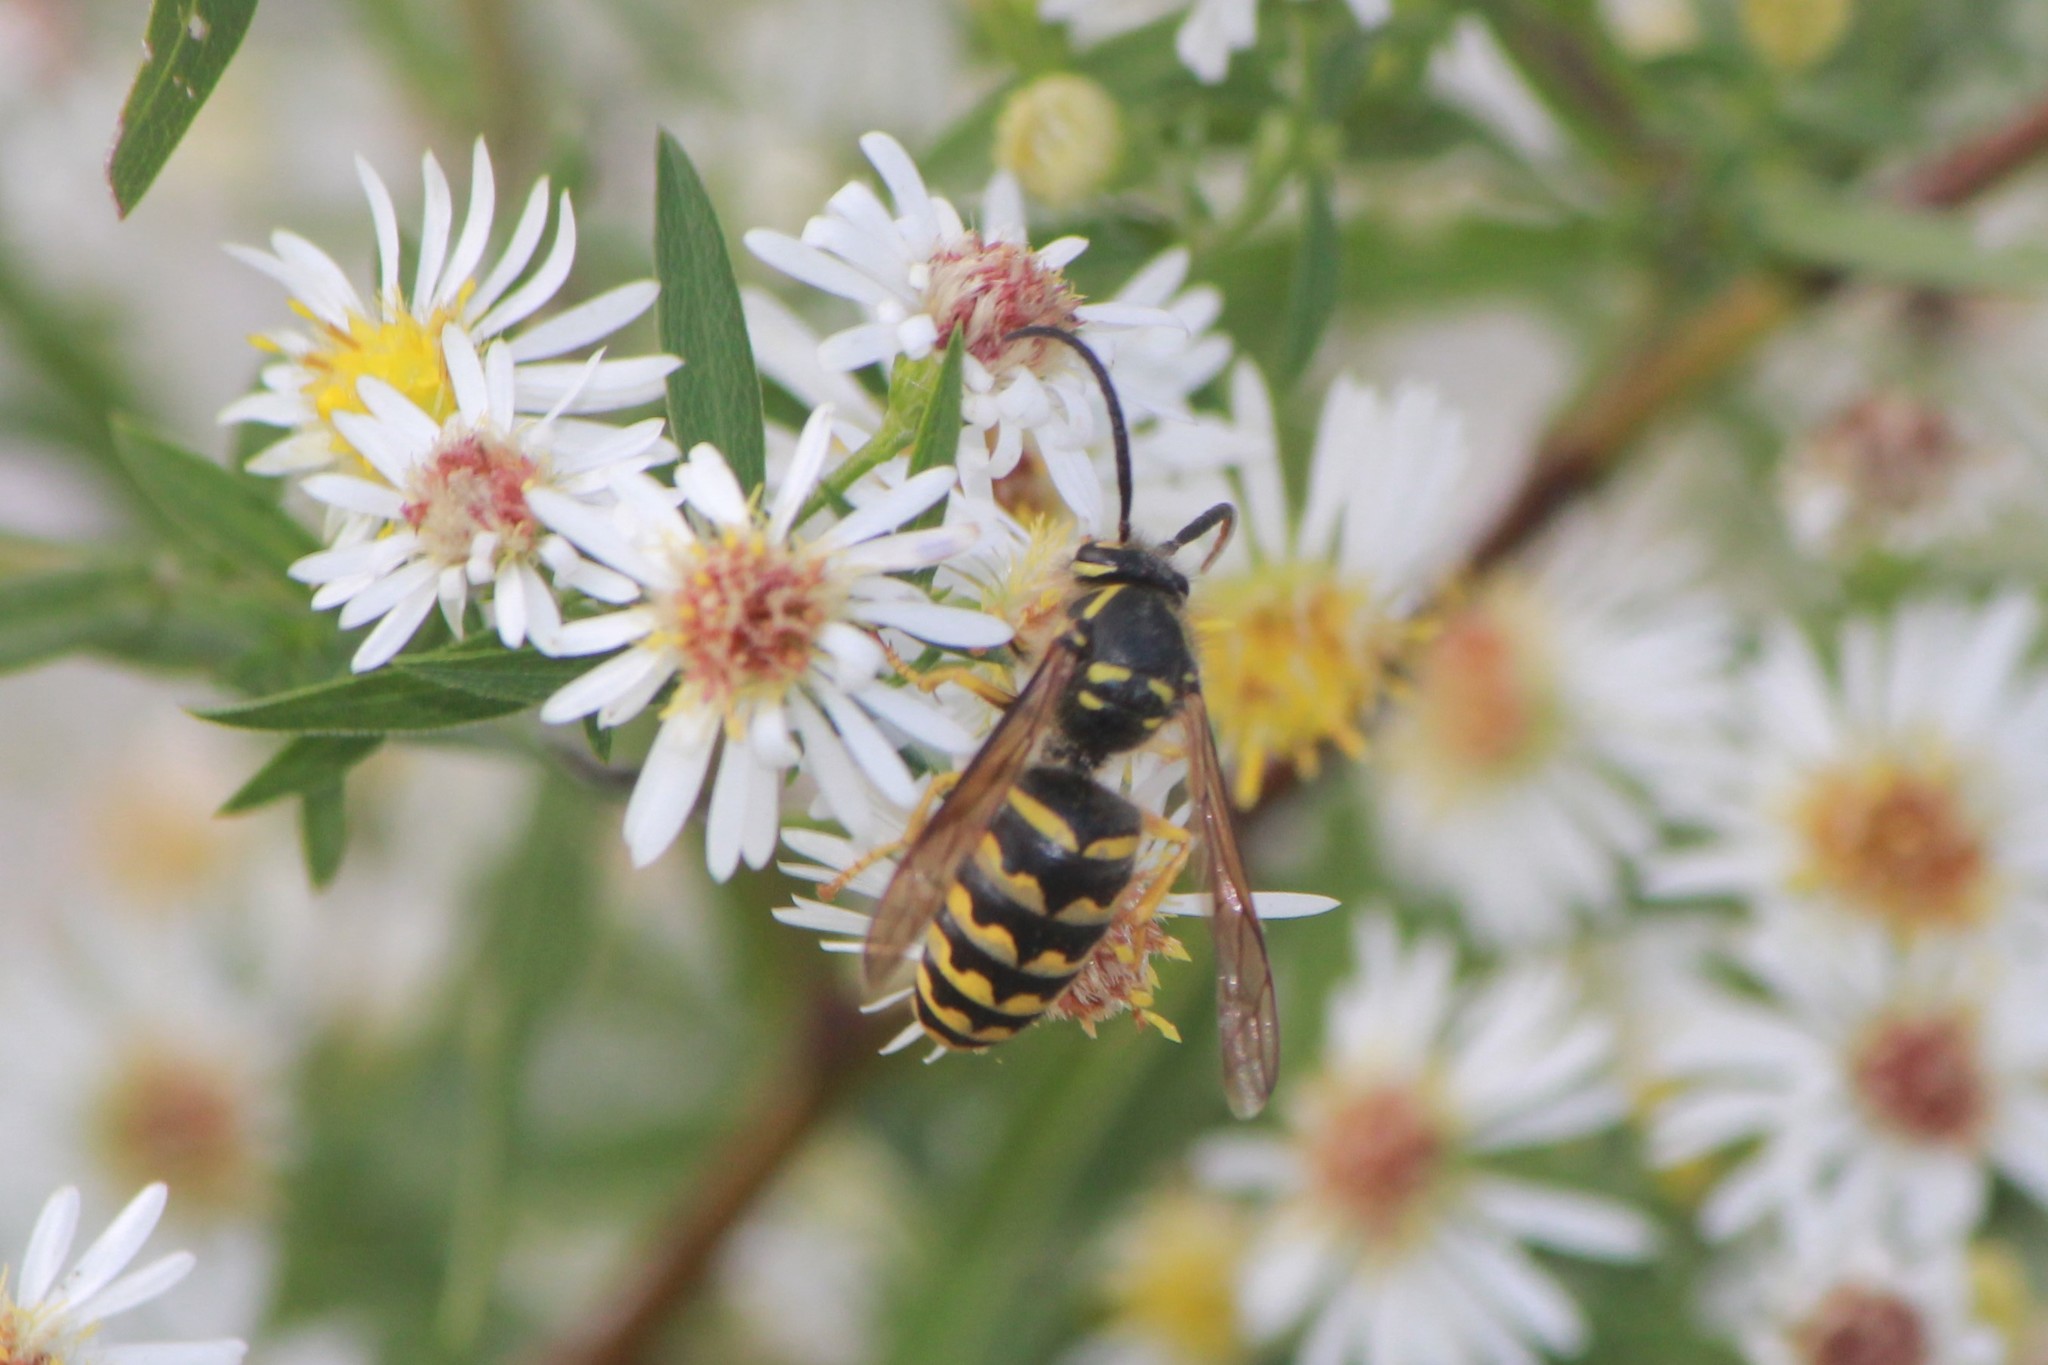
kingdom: Animalia
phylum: Arthropoda
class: Insecta
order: Hymenoptera
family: Vespidae
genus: Dolichovespula
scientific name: Dolichovespula arenaria
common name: Aerial yellowjacket
